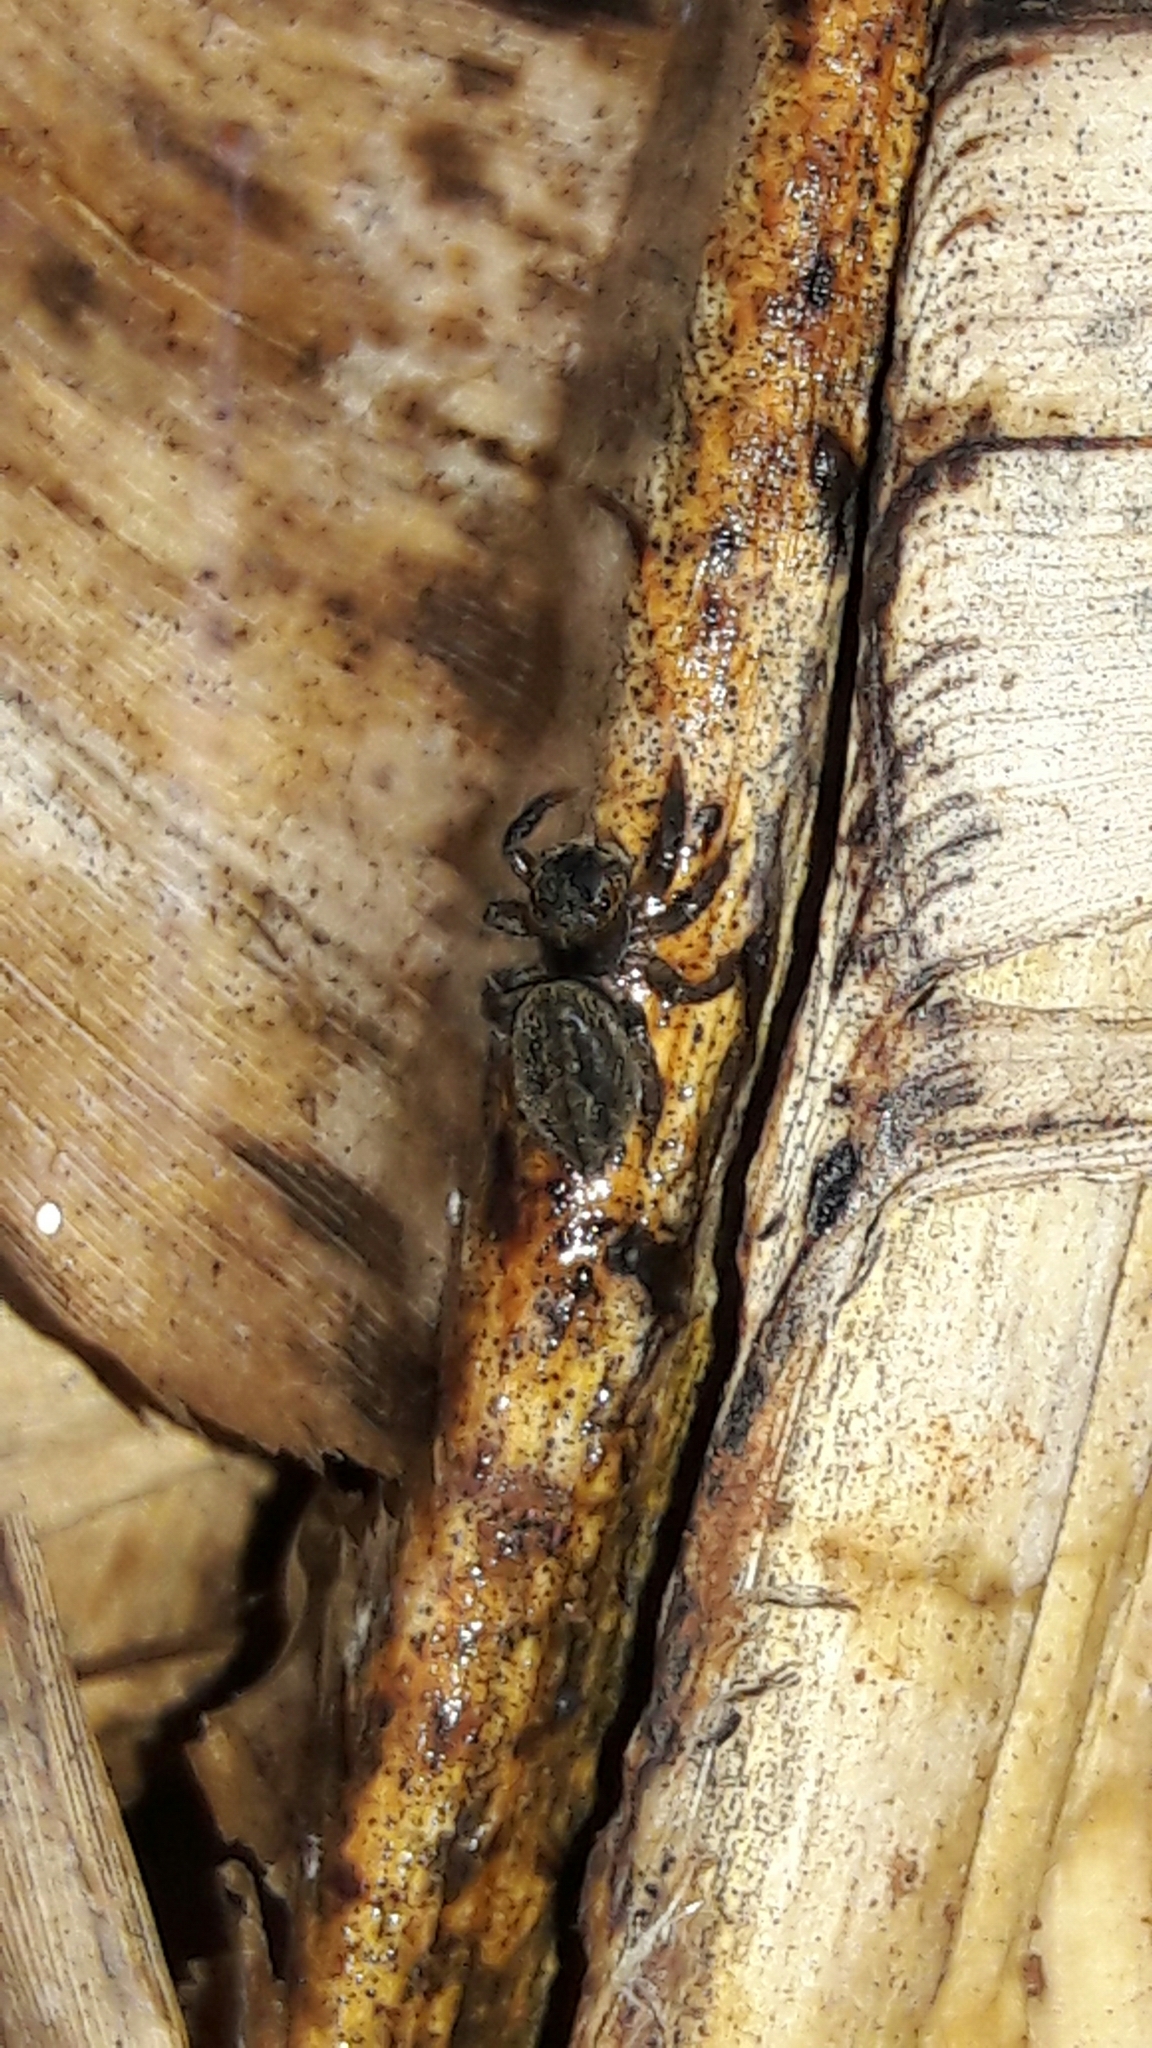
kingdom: Animalia
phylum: Arthropoda
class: Arachnida
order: Araneae
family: Salticidae
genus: Hasarius
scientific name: Hasarius adansoni
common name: Jumping spider
